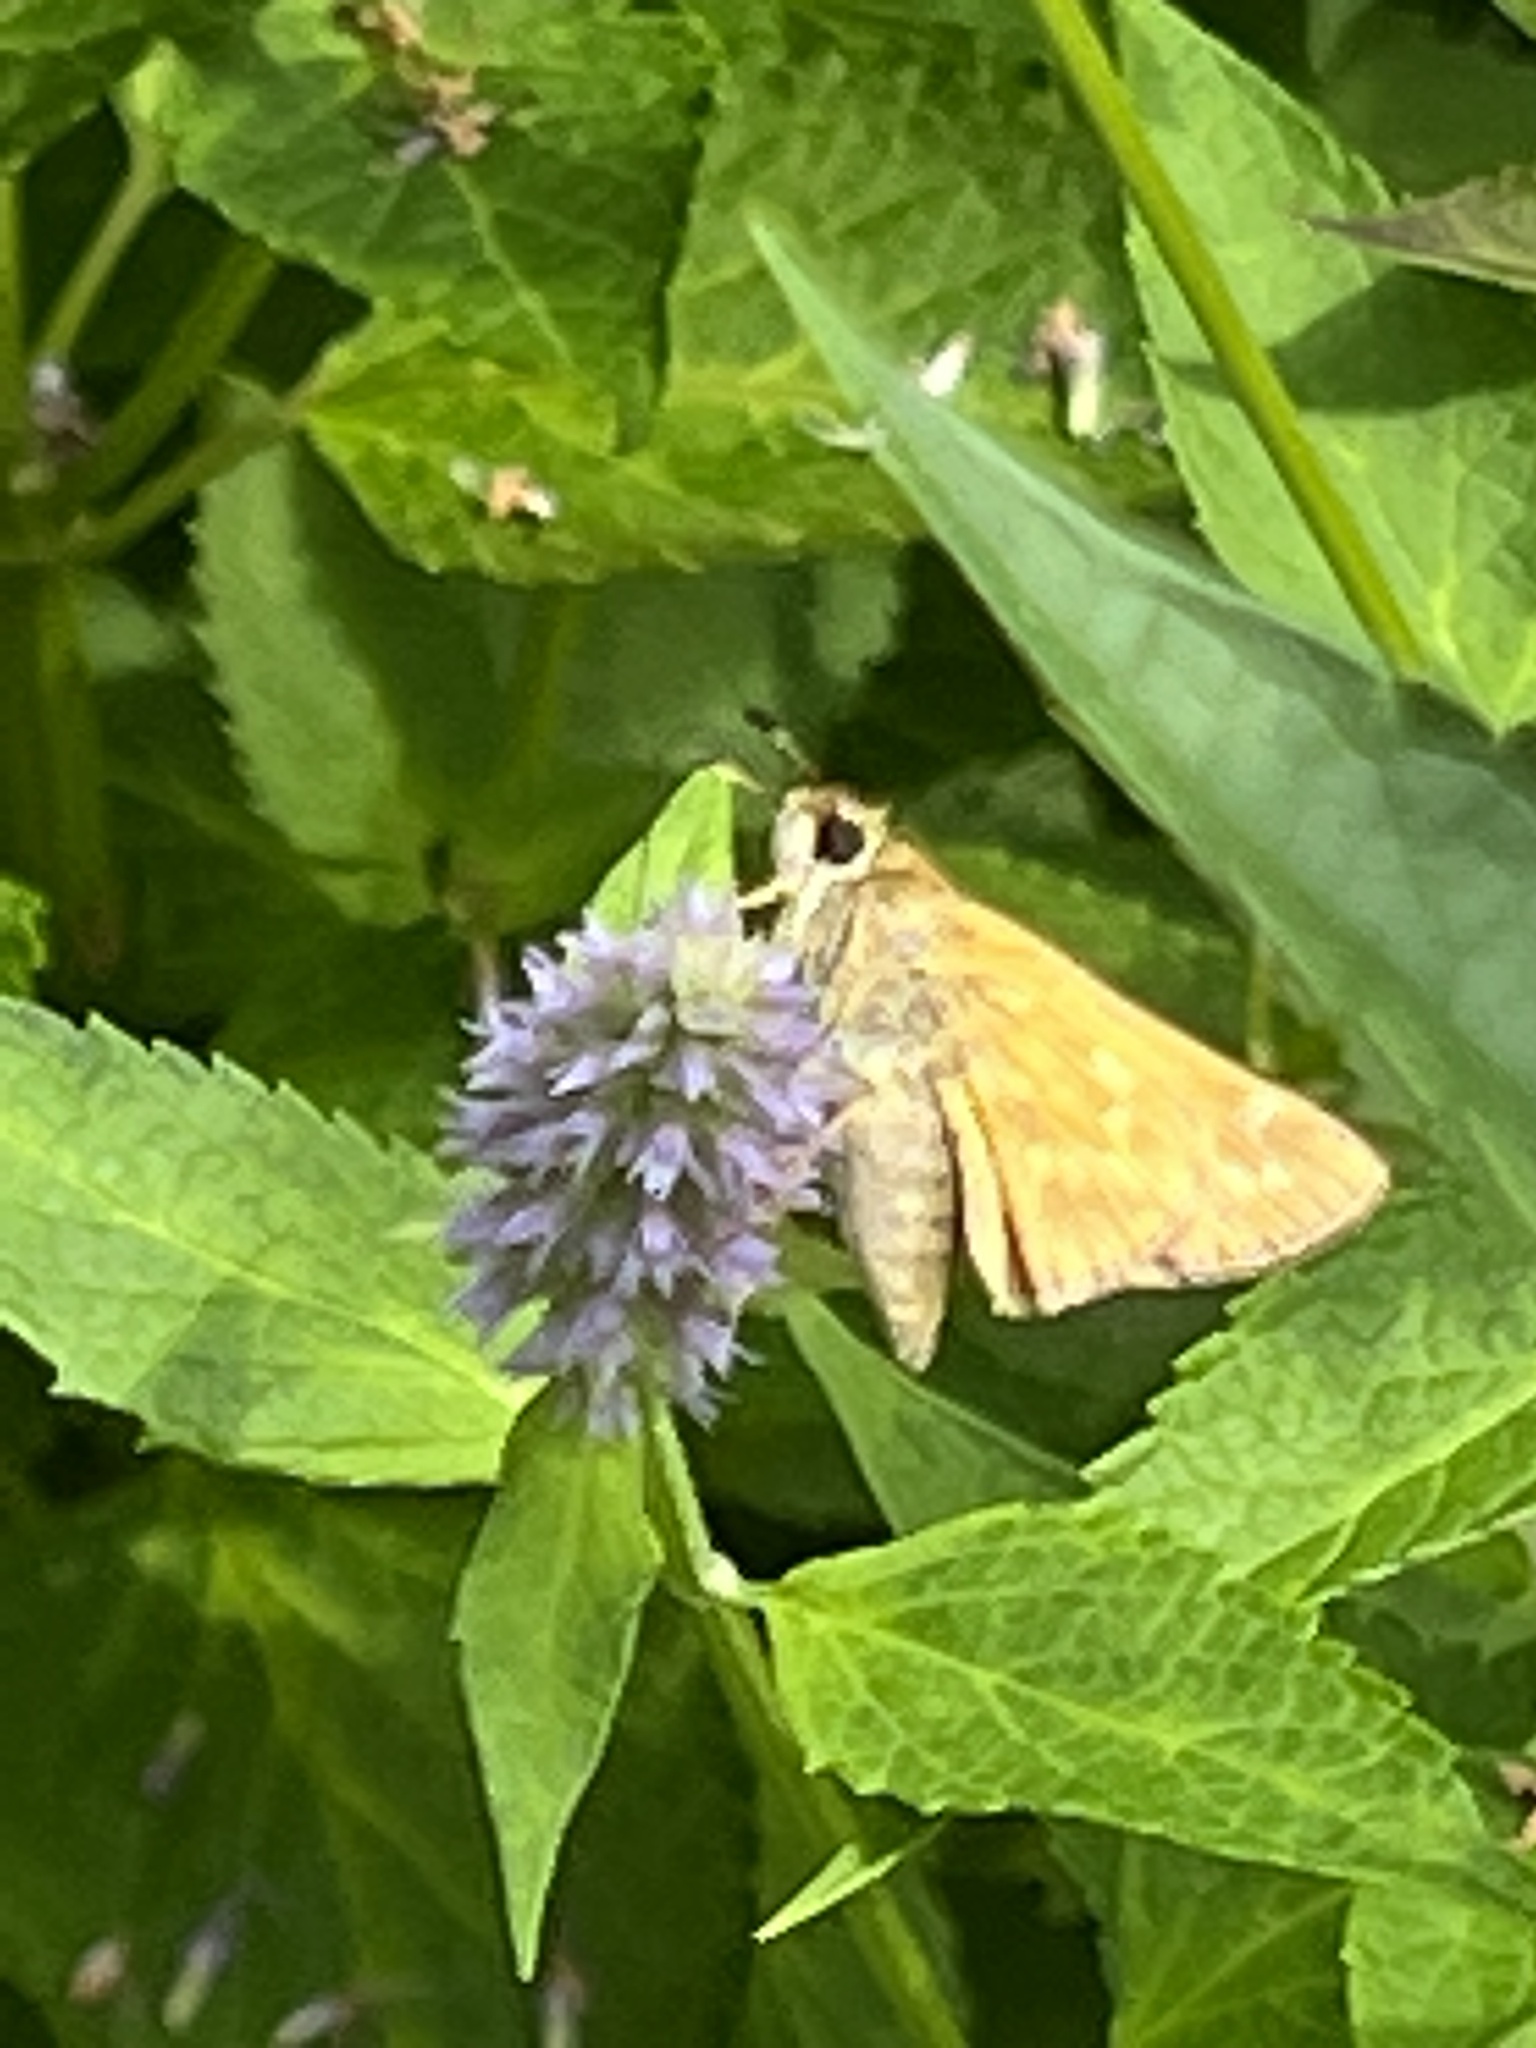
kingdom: Animalia
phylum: Arthropoda
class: Insecta
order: Lepidoptera
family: Hesperiidae
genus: Atalopedes
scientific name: Atalopedes
